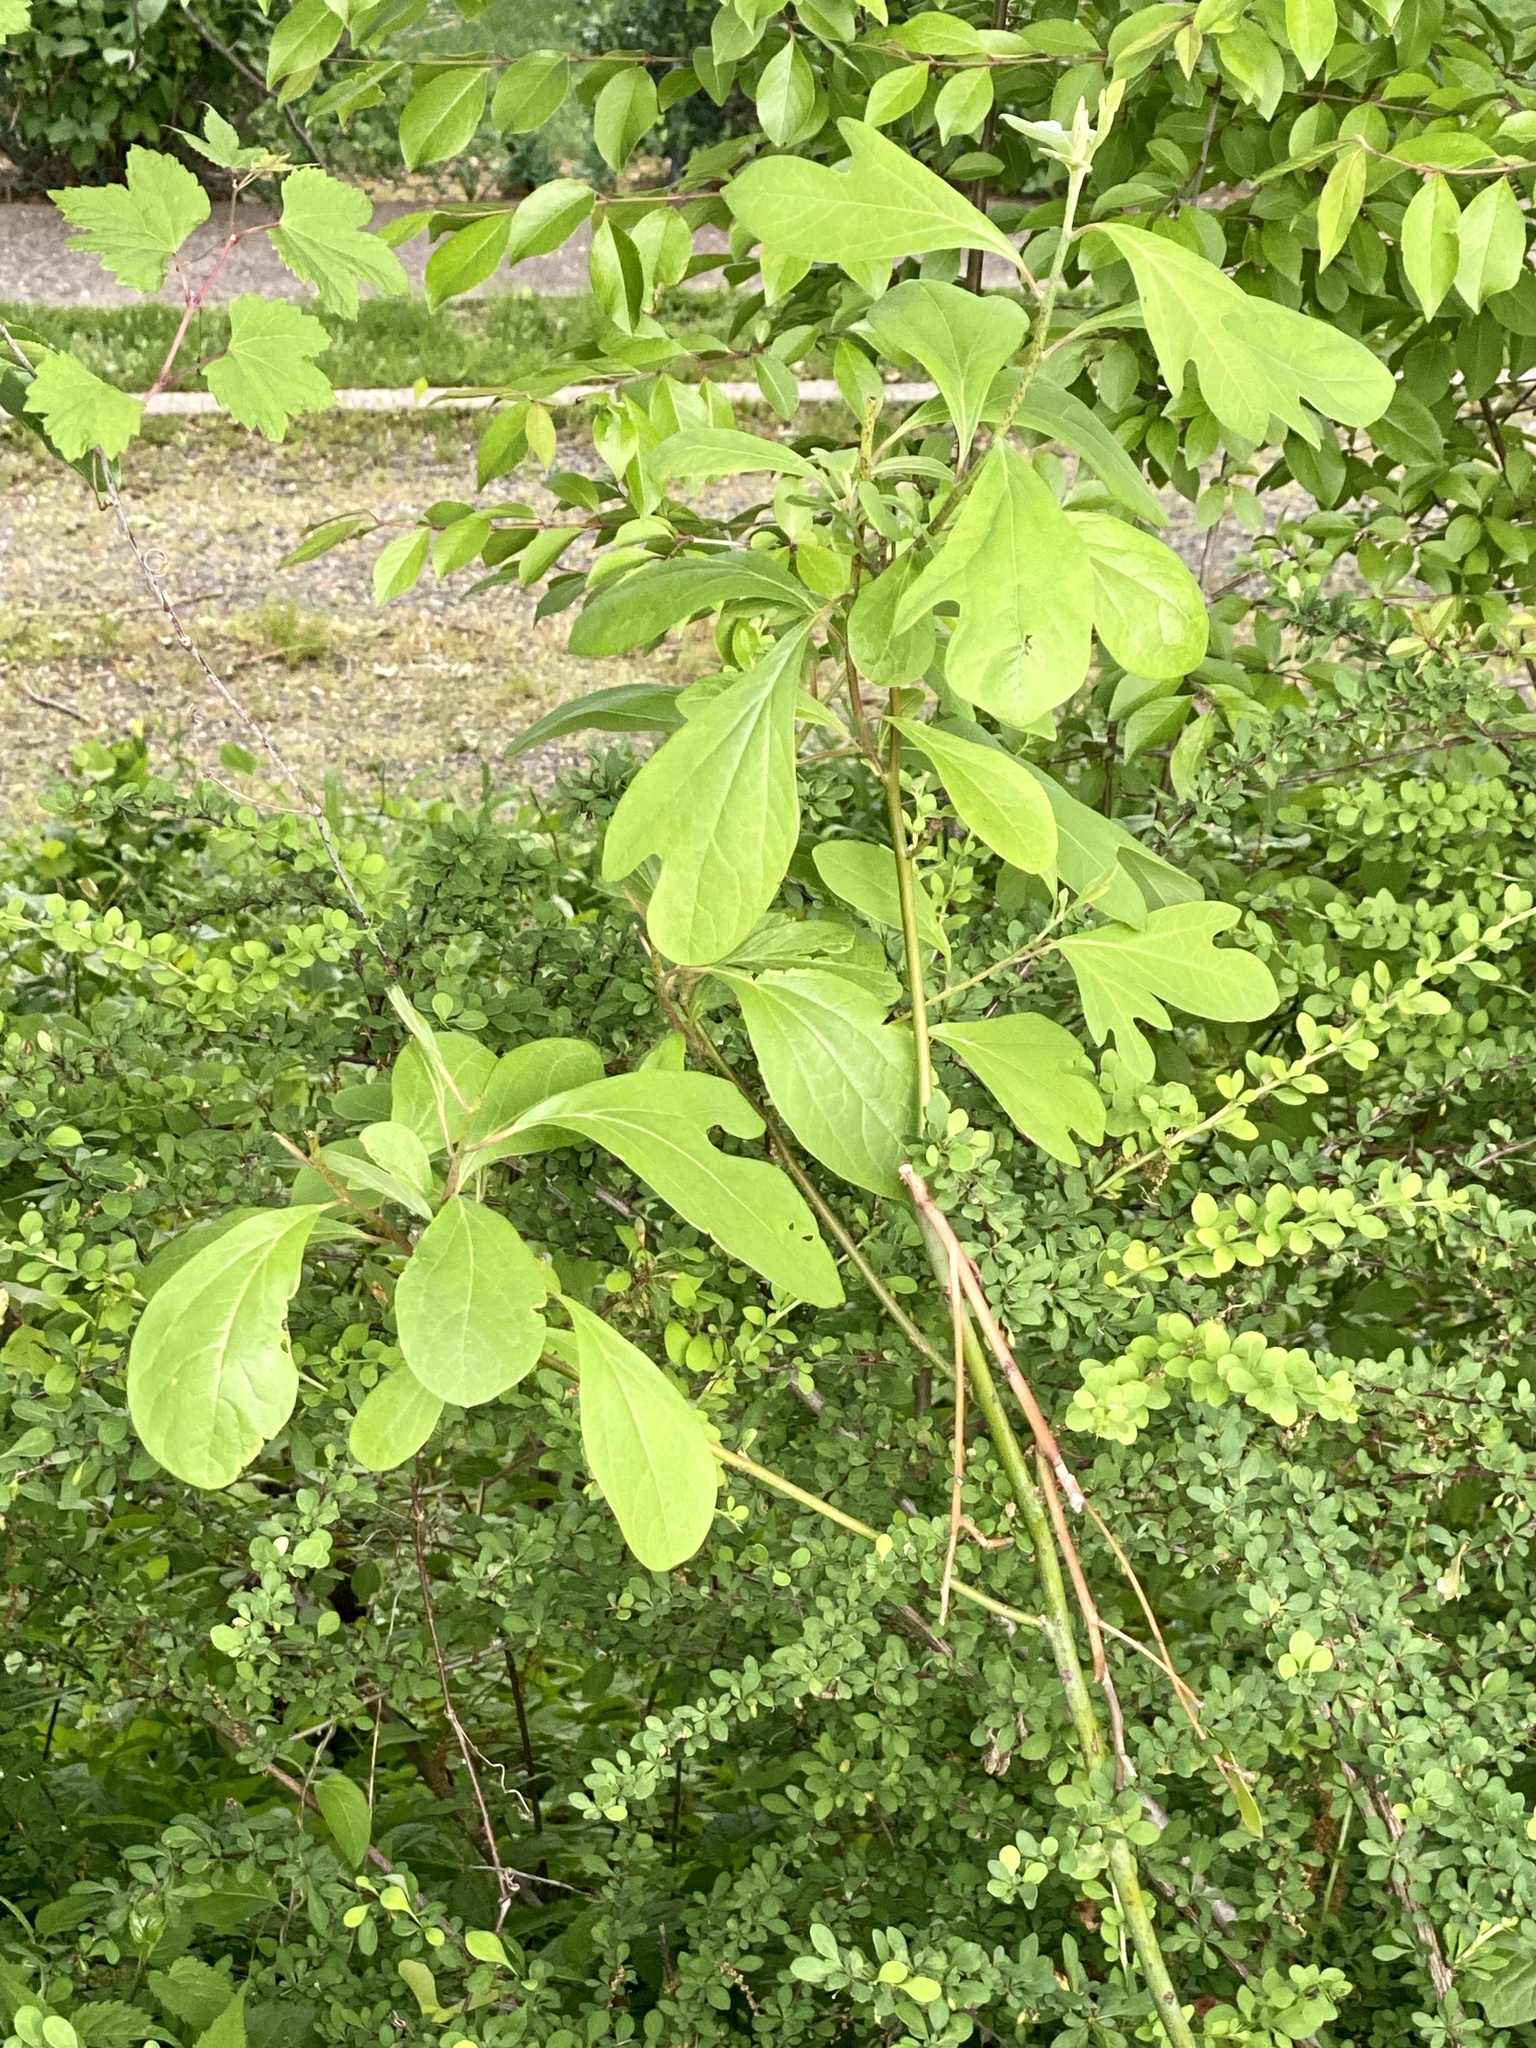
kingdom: Plantae
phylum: Tracheophyta
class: Magnoliopsida
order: Laurales
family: Lauraceae
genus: Sassafras
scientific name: Sassafras albidum
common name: Sassafras
